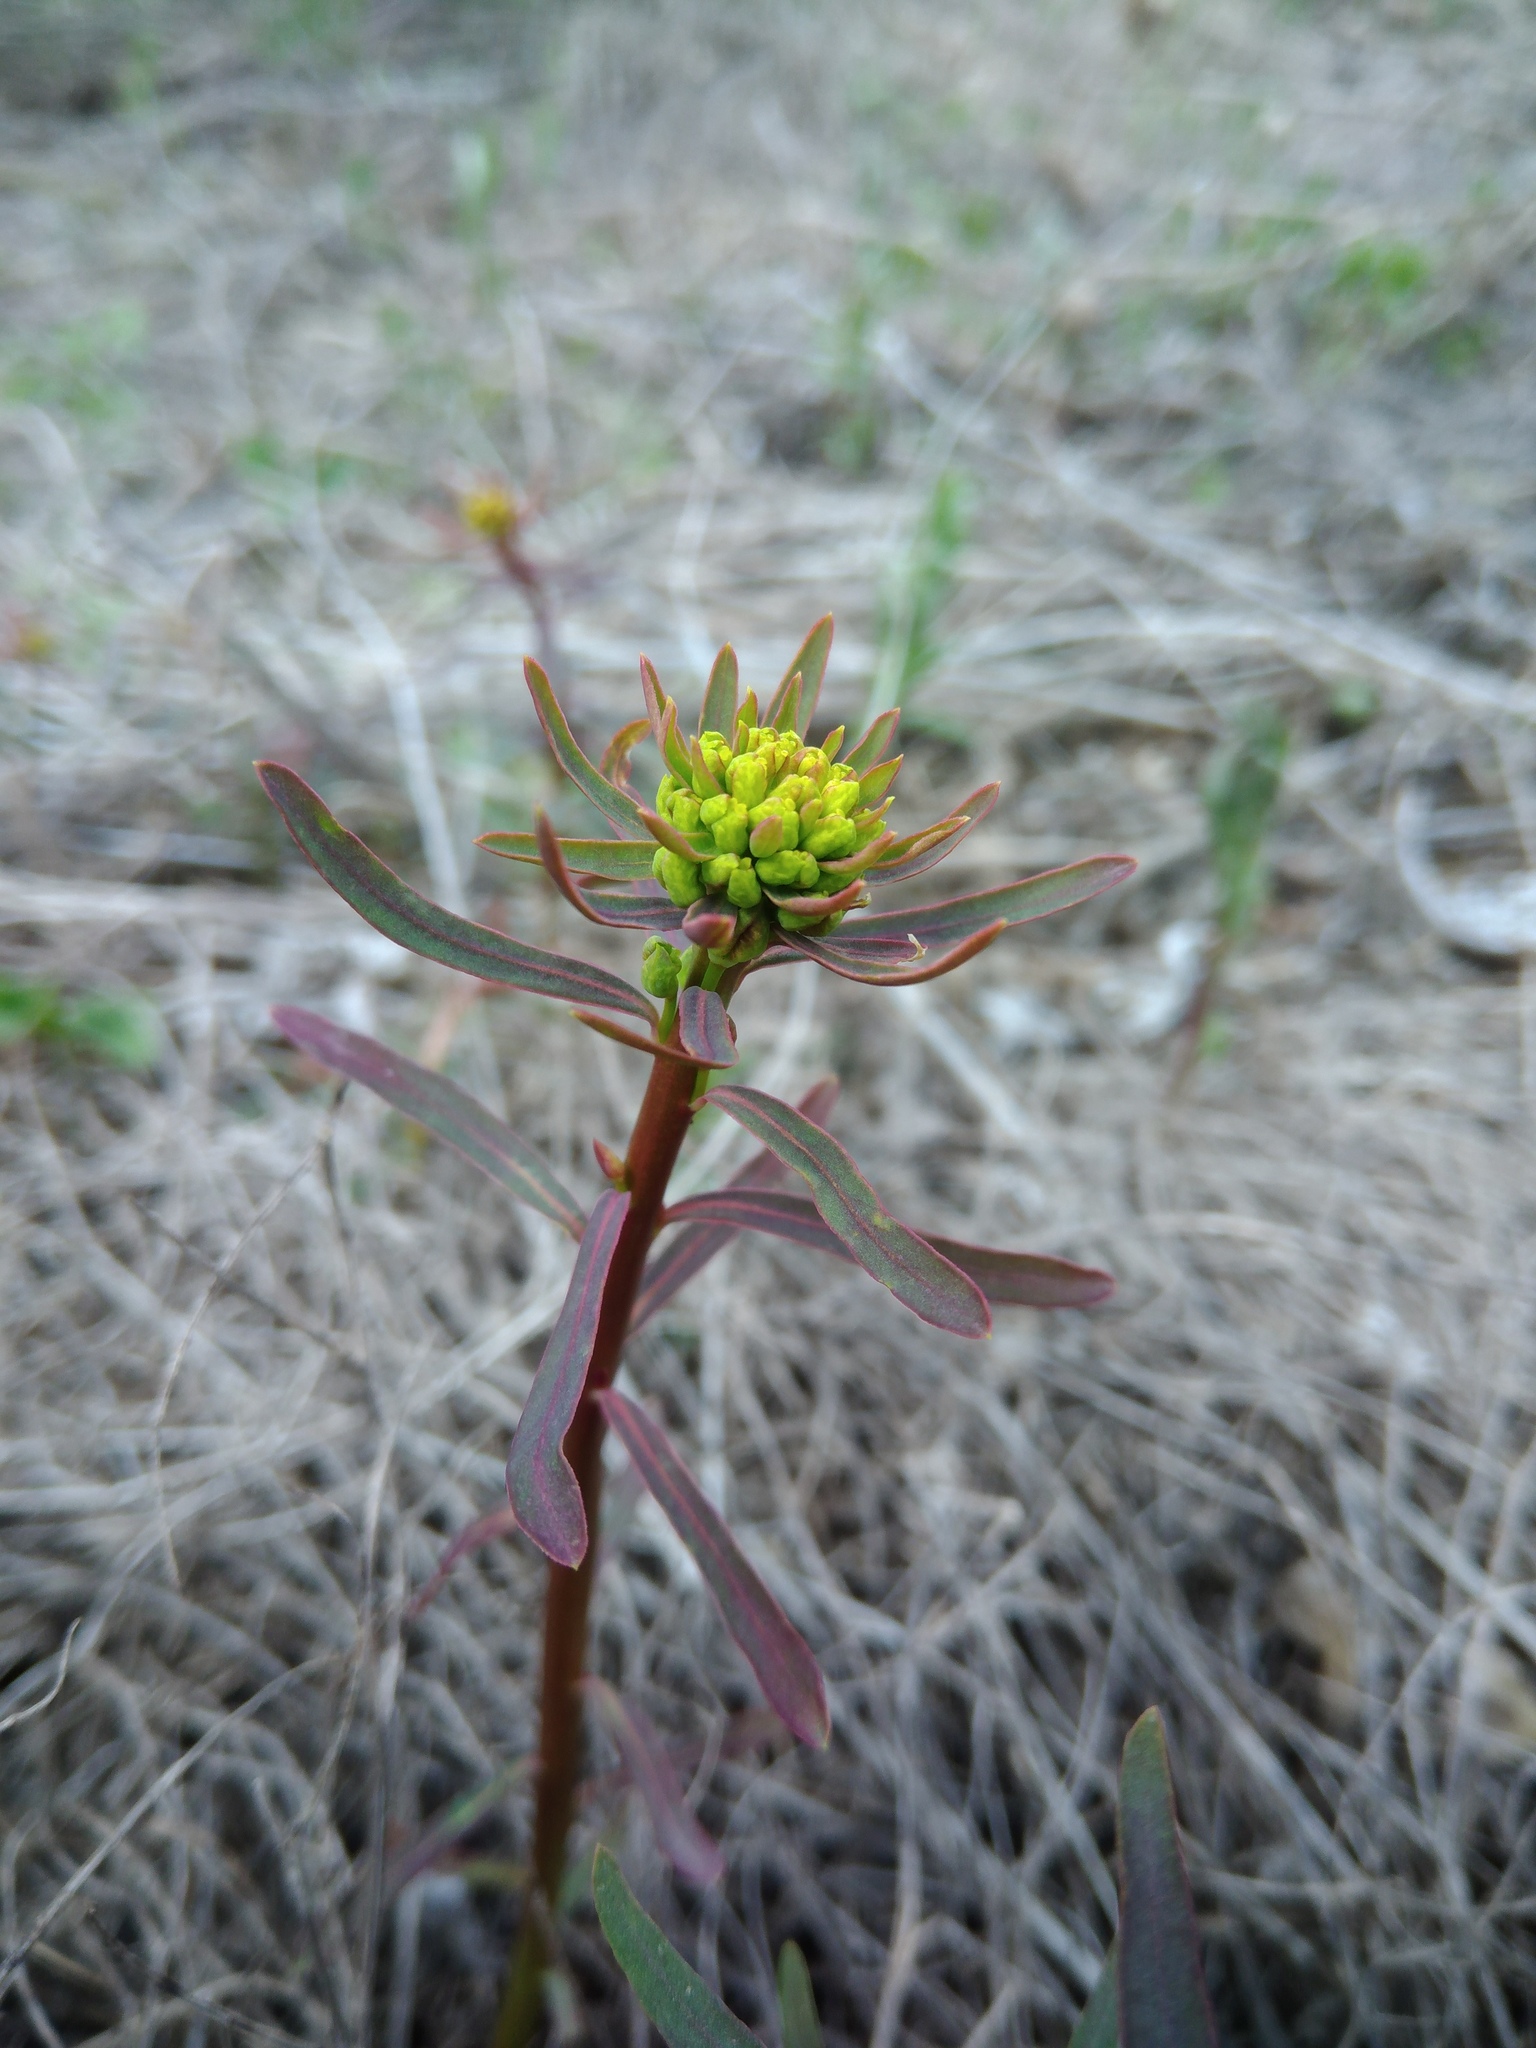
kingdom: Plantae
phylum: Tracheophyta
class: Magnoliopsida
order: Malpighiales
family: Euphorbiaceae
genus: Euphorbia
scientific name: Euphorbia esula
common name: Leafy spurge
